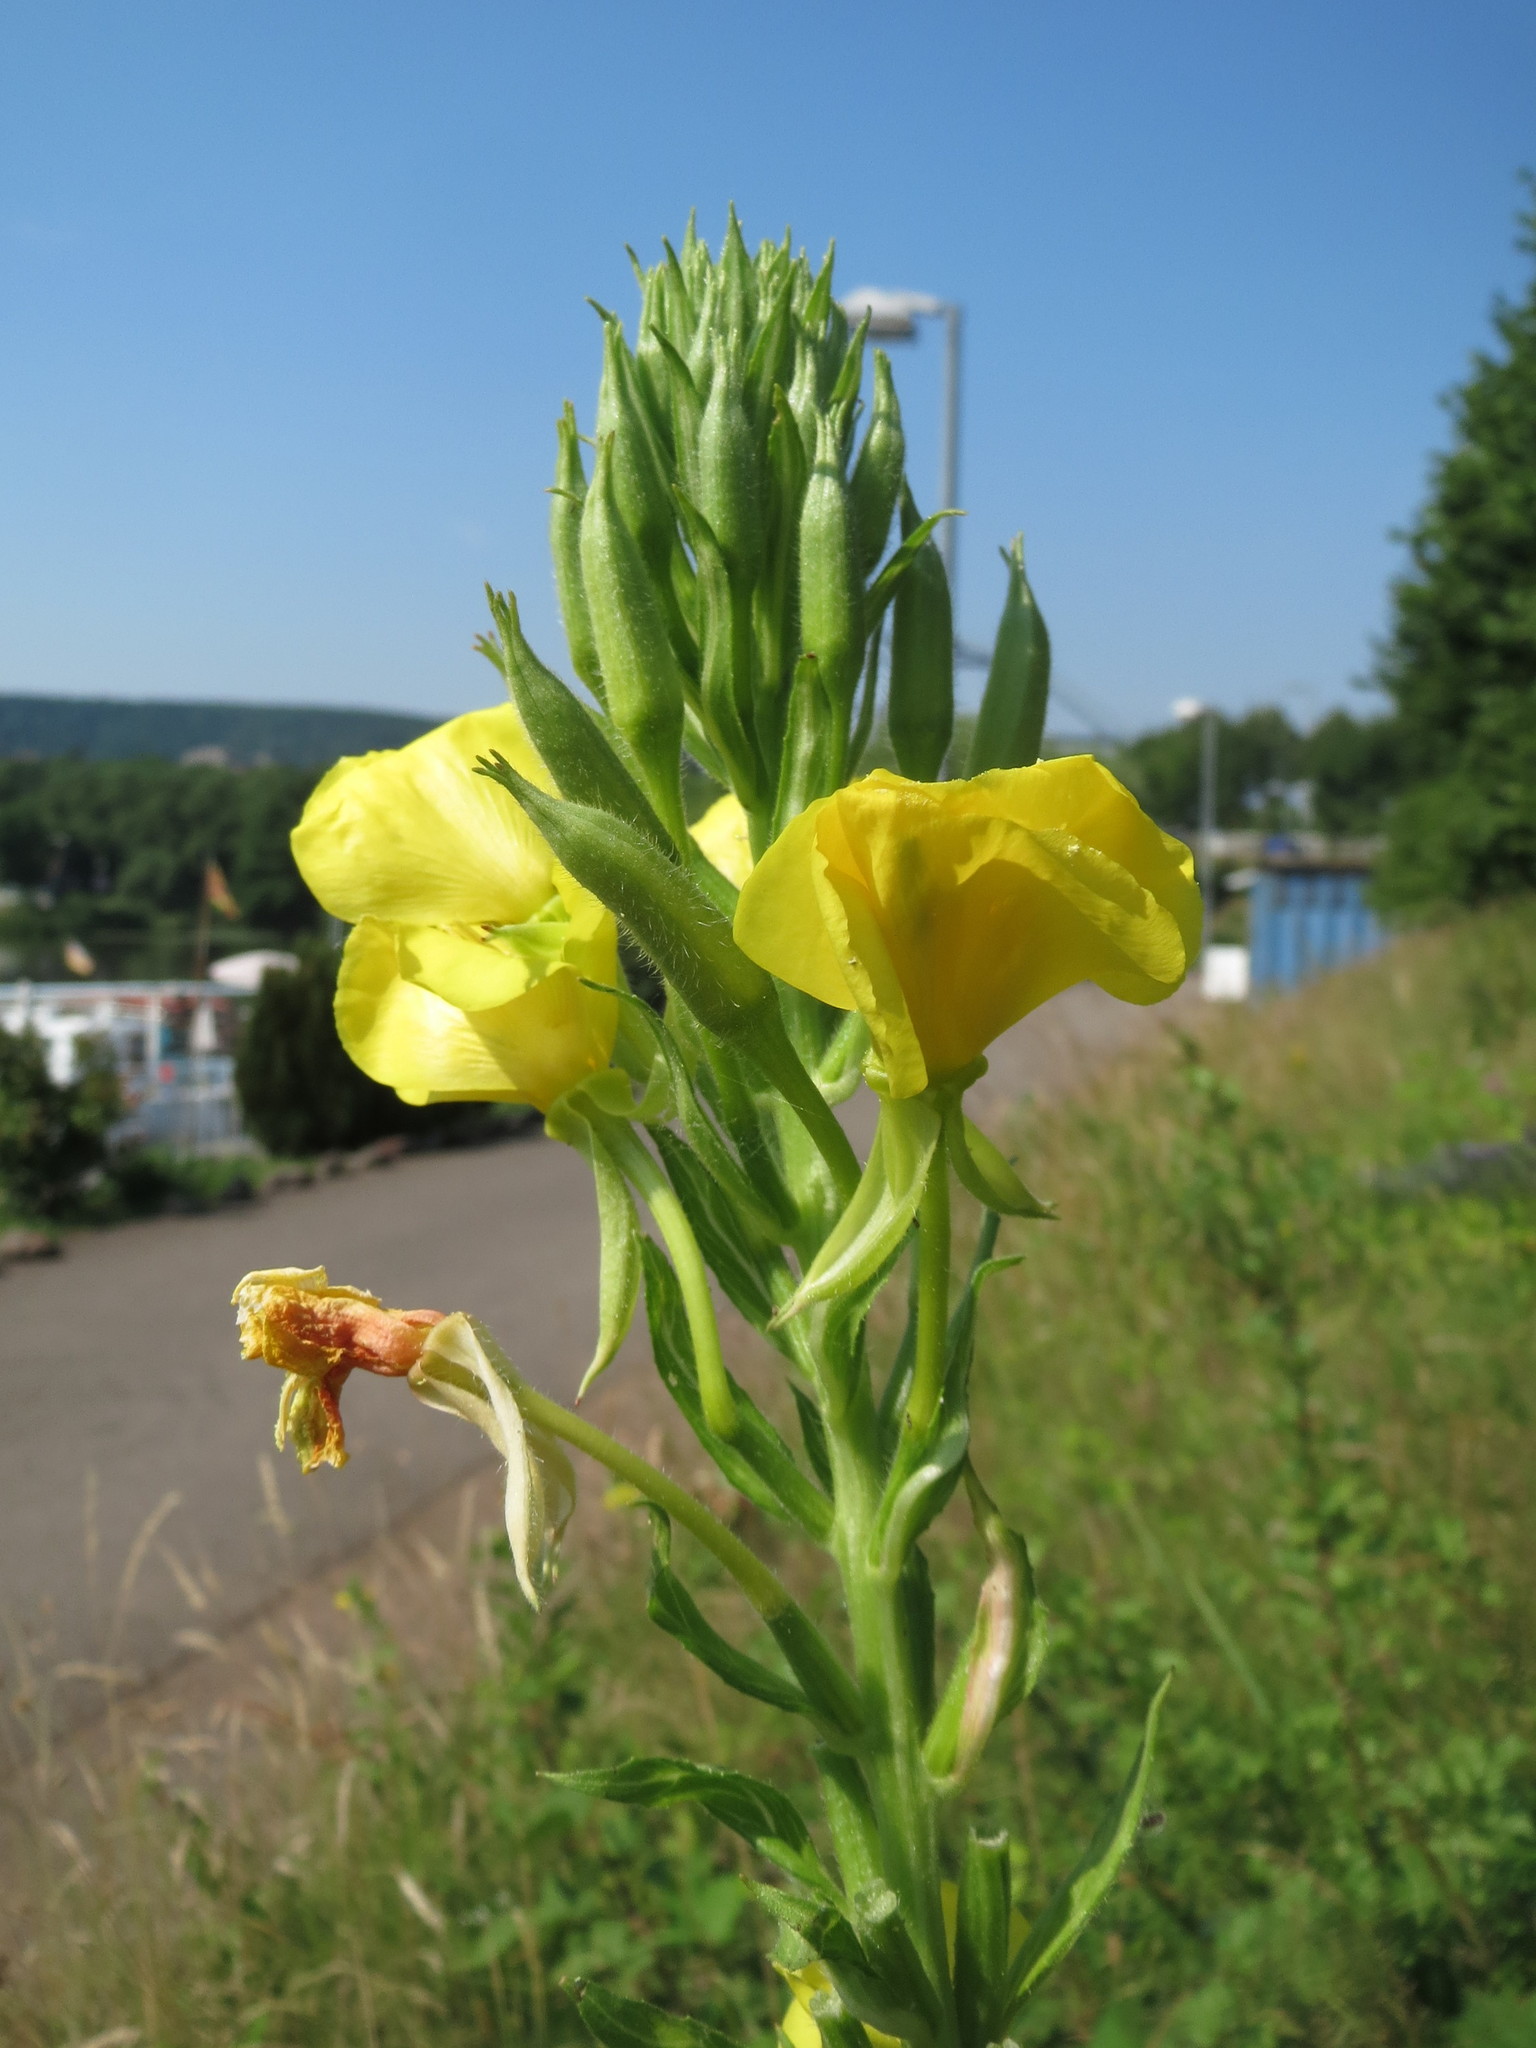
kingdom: Plantae
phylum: Tracheophyta
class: Magnoliopsida
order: Myrtales
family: Onagraceae
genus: Oenothera
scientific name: Oenothera biennis
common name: Common evening-primrose
